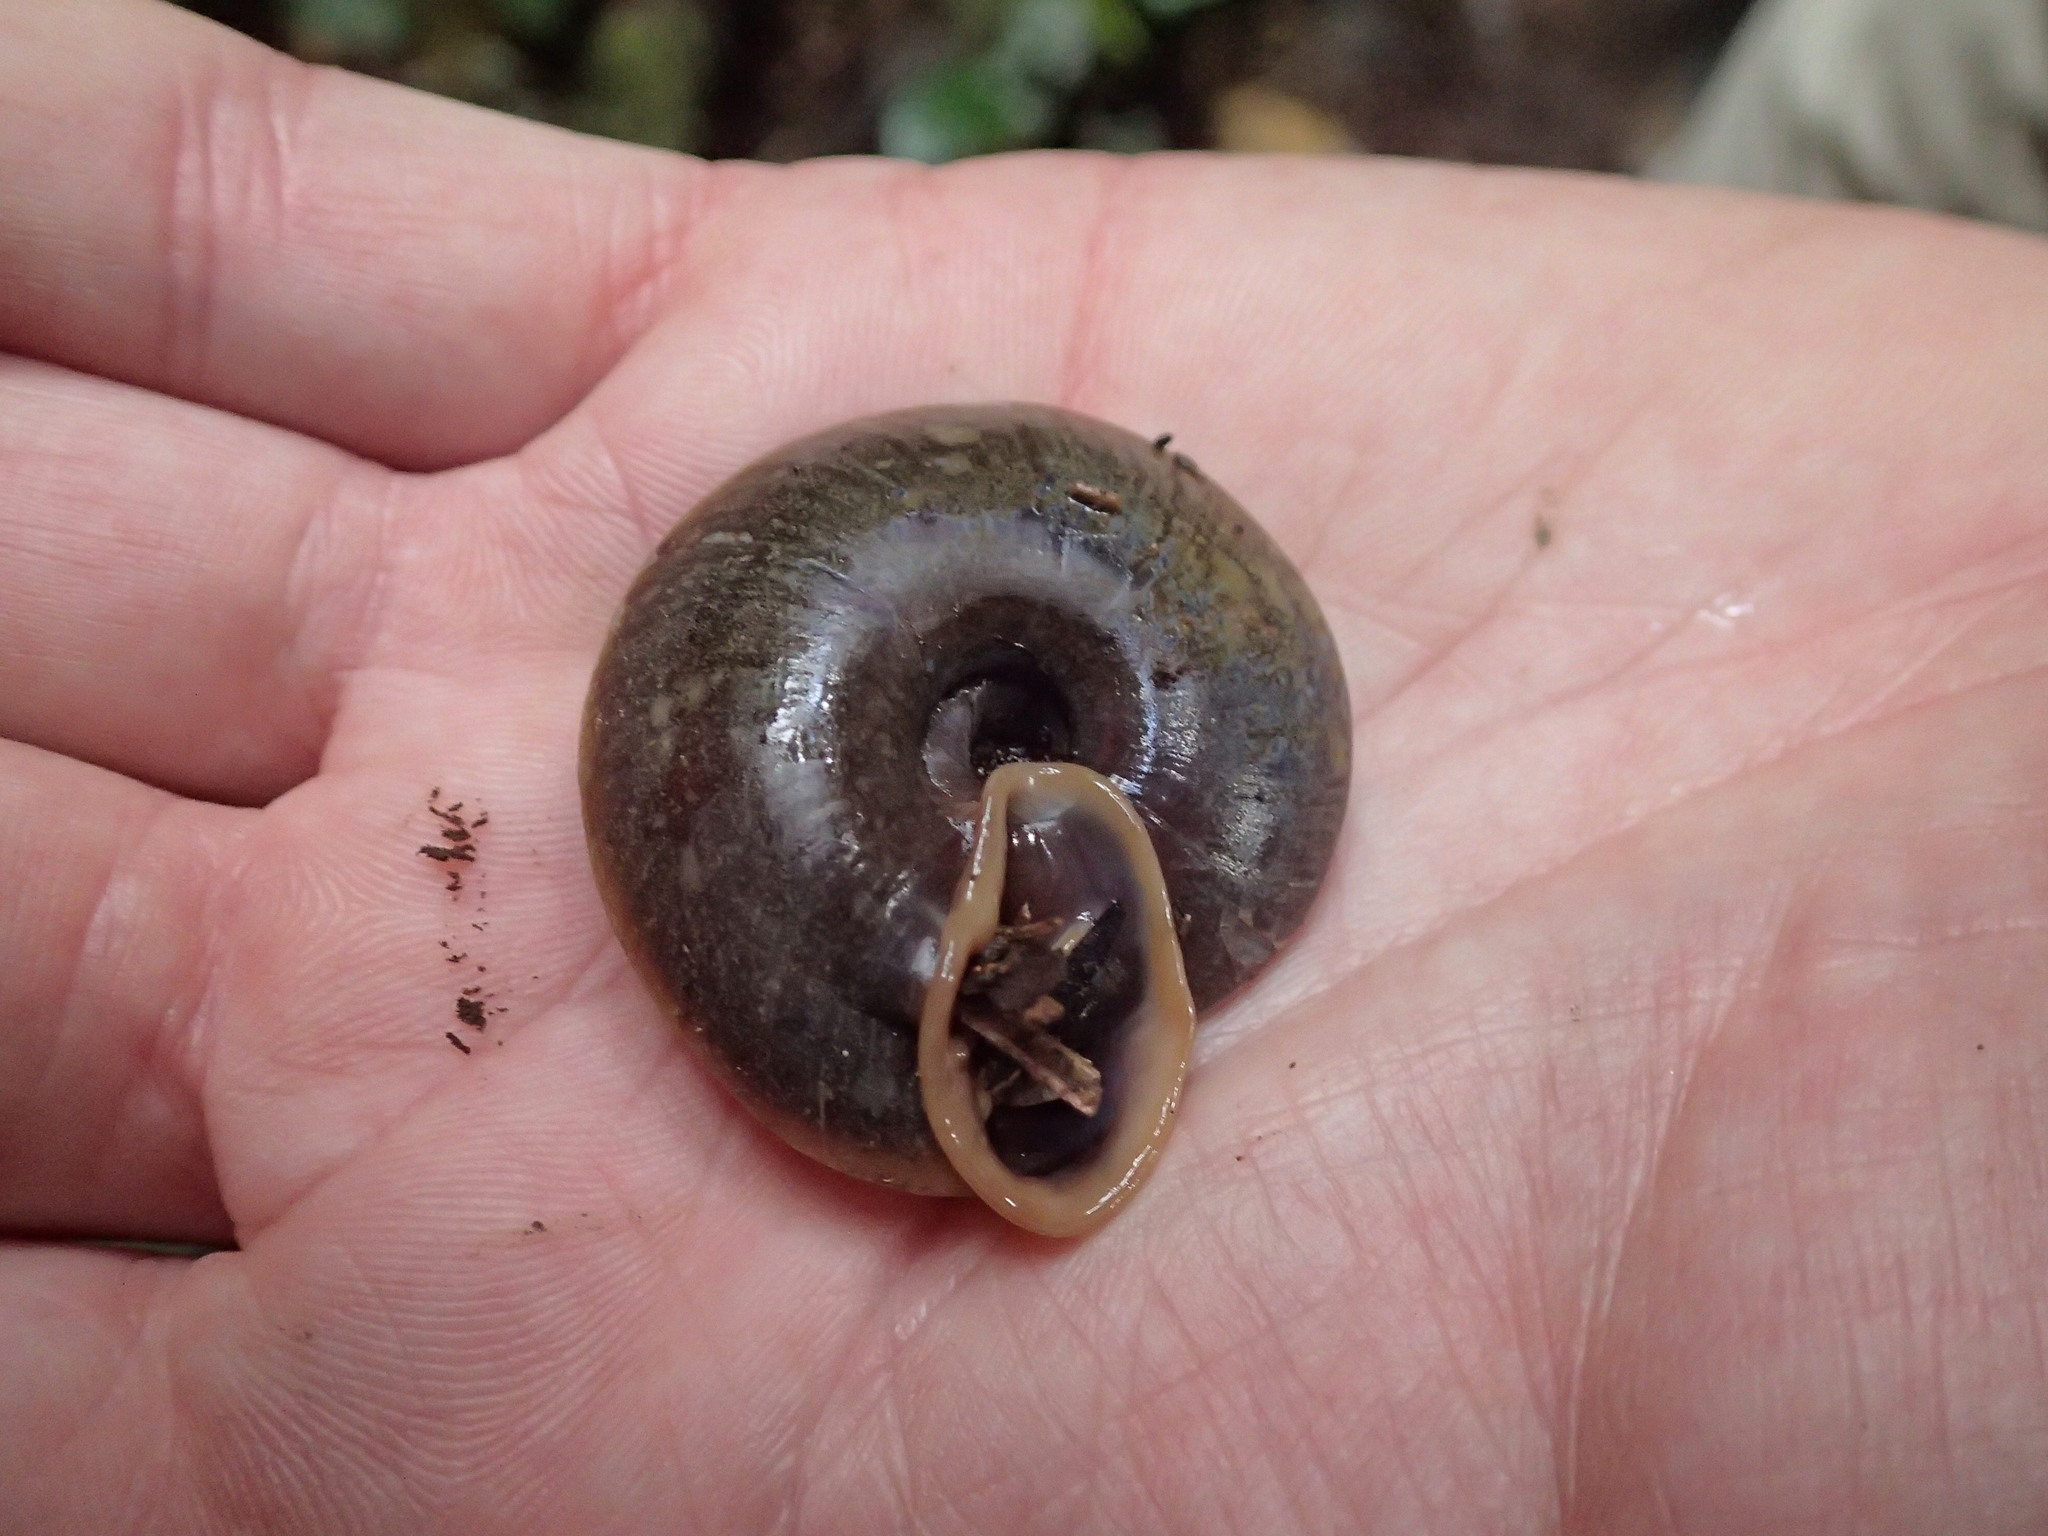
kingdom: Animalia
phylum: Mollusca
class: Gastropoda
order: Stylommatophora
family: Labyrinthidae
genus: Labyrinthus
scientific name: Labyrinthus
